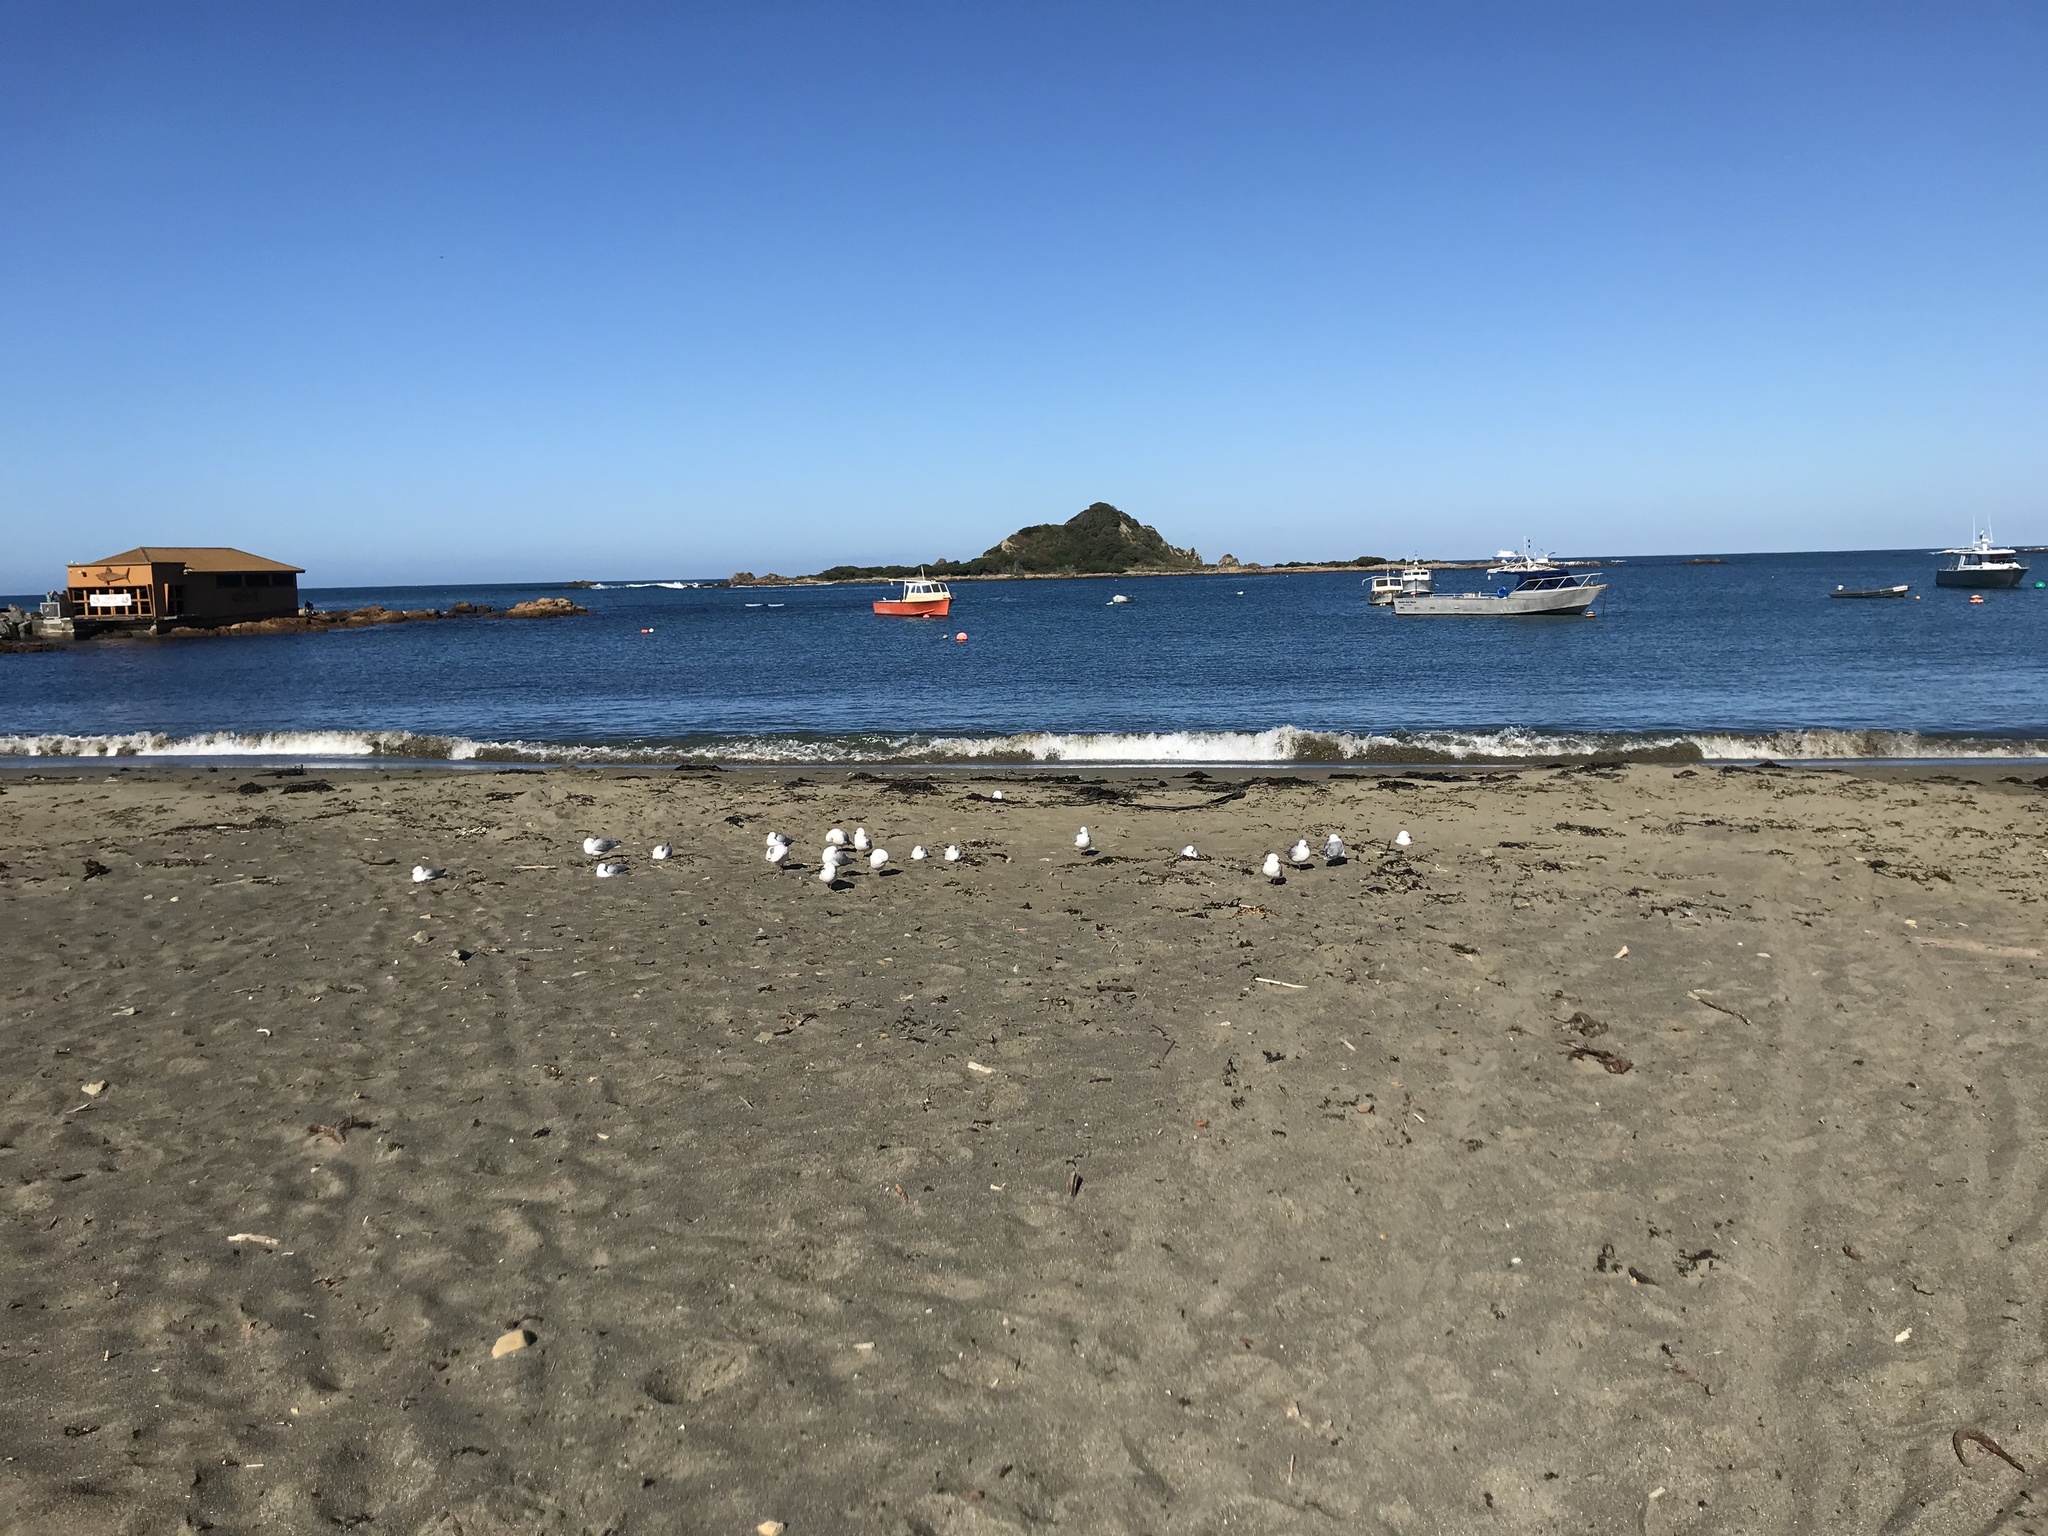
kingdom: Animalia
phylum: Chordata
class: Aves
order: Charadriiformes
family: Laridae
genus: Chroicocephalus
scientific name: Chroicocephalus novaehollandiae
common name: Silver gull
